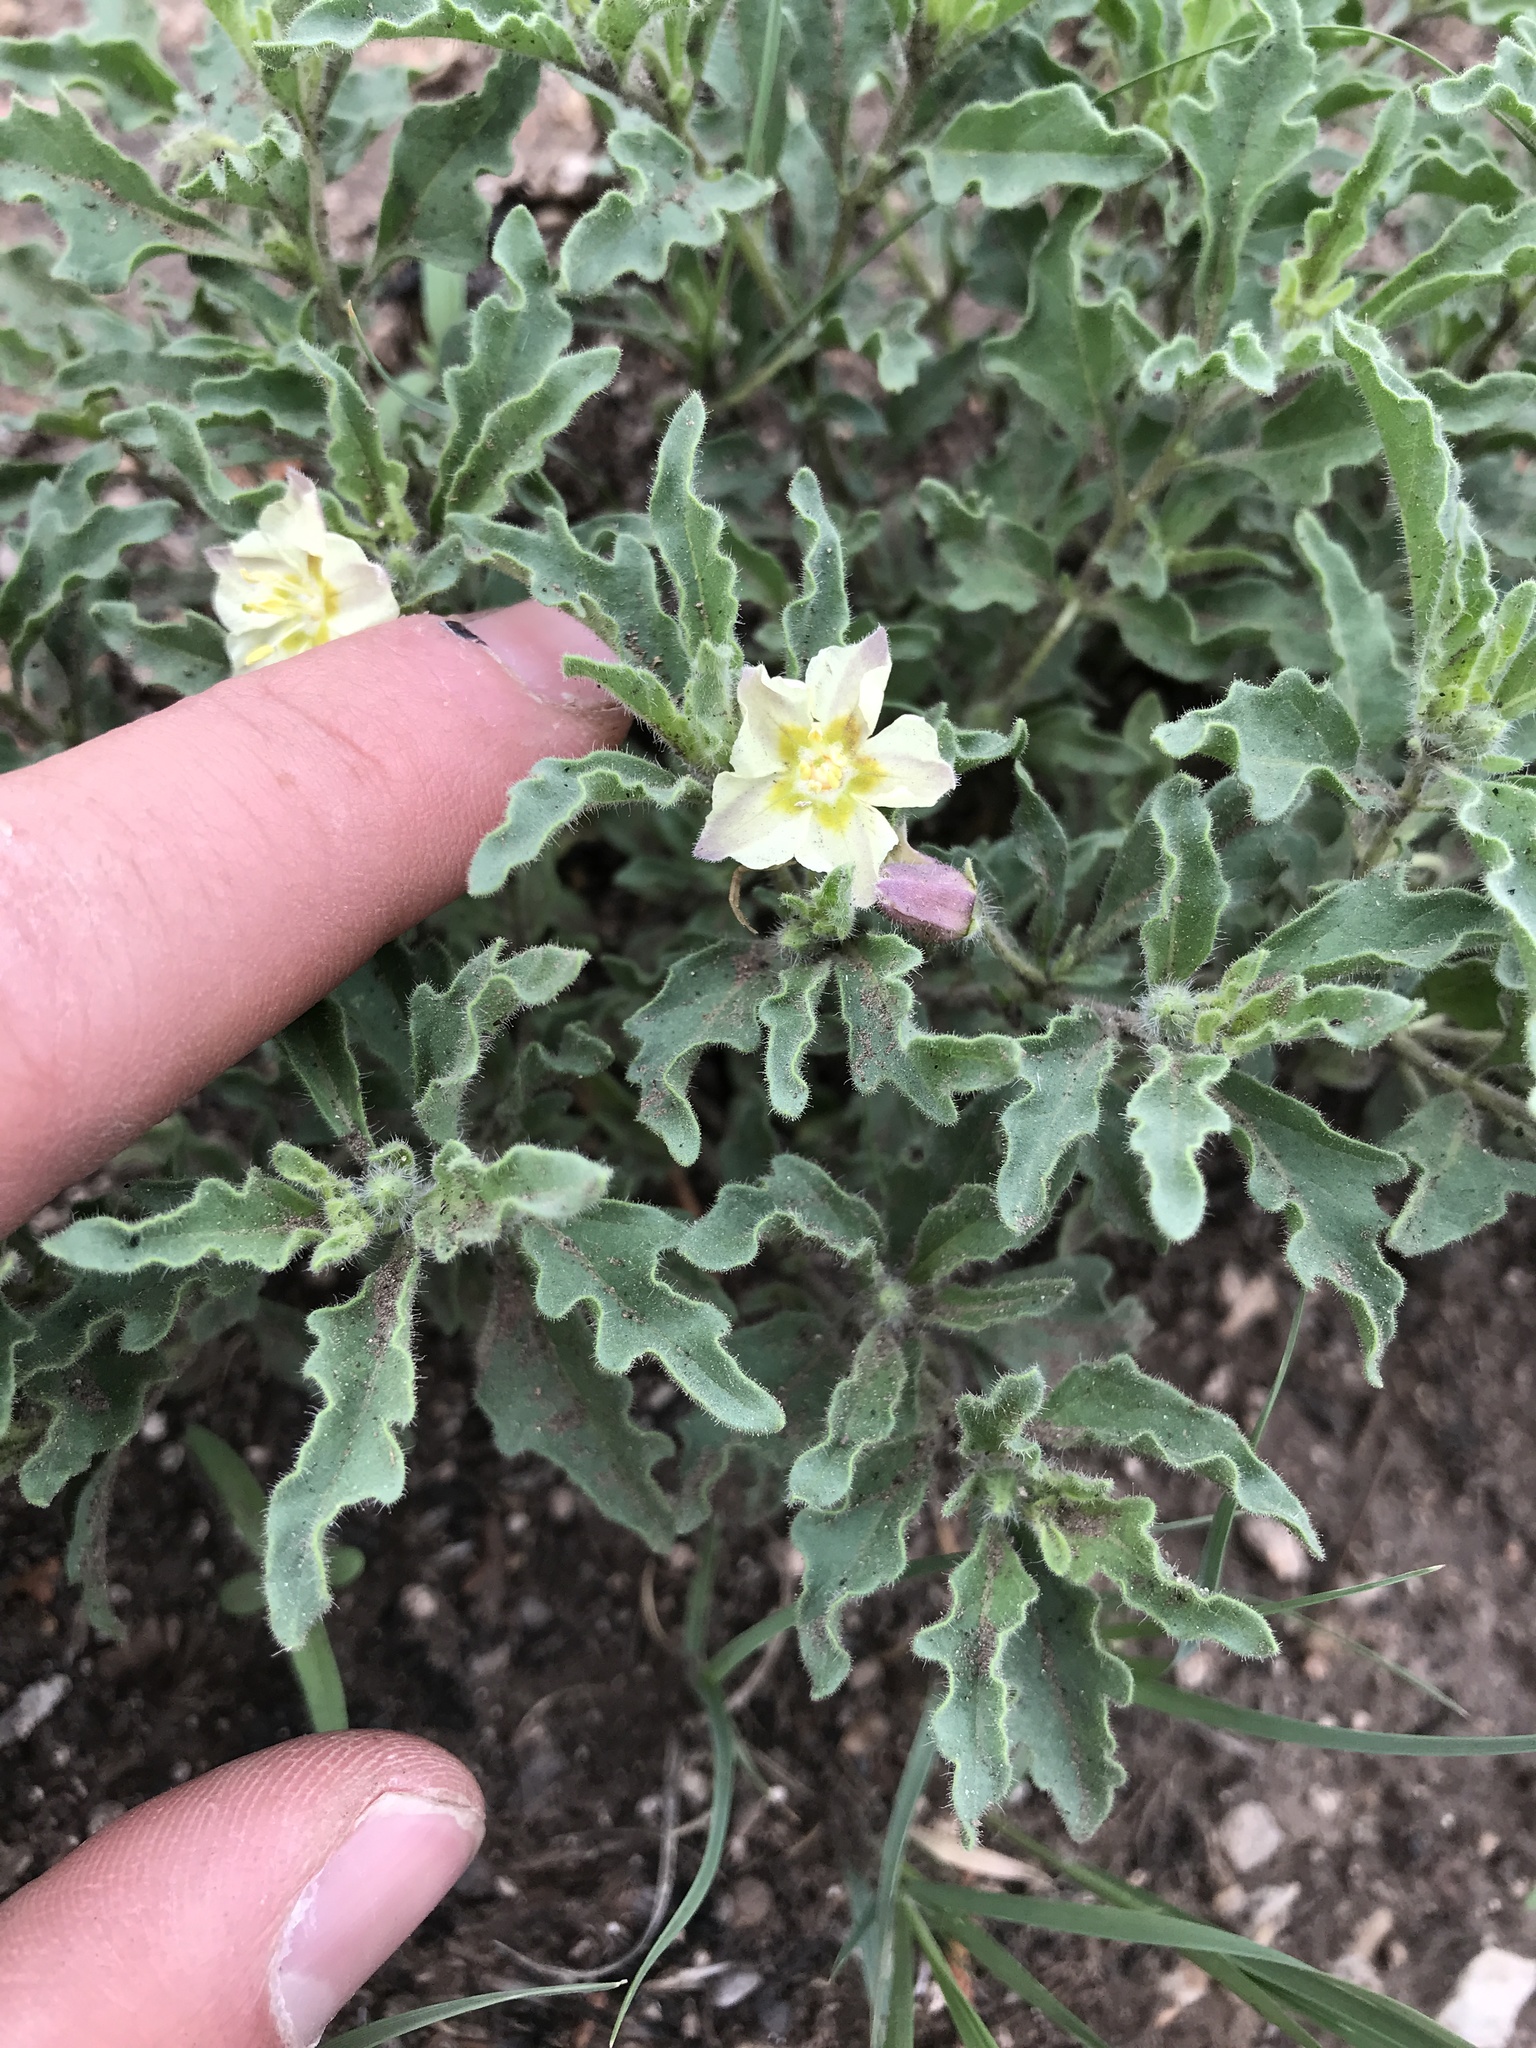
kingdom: Plantae
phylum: Tracheophyta
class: Magnoliopsida
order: Solanales
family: Solanaceae
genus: Chamaesaracha
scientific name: Chamaesaracha sordida
